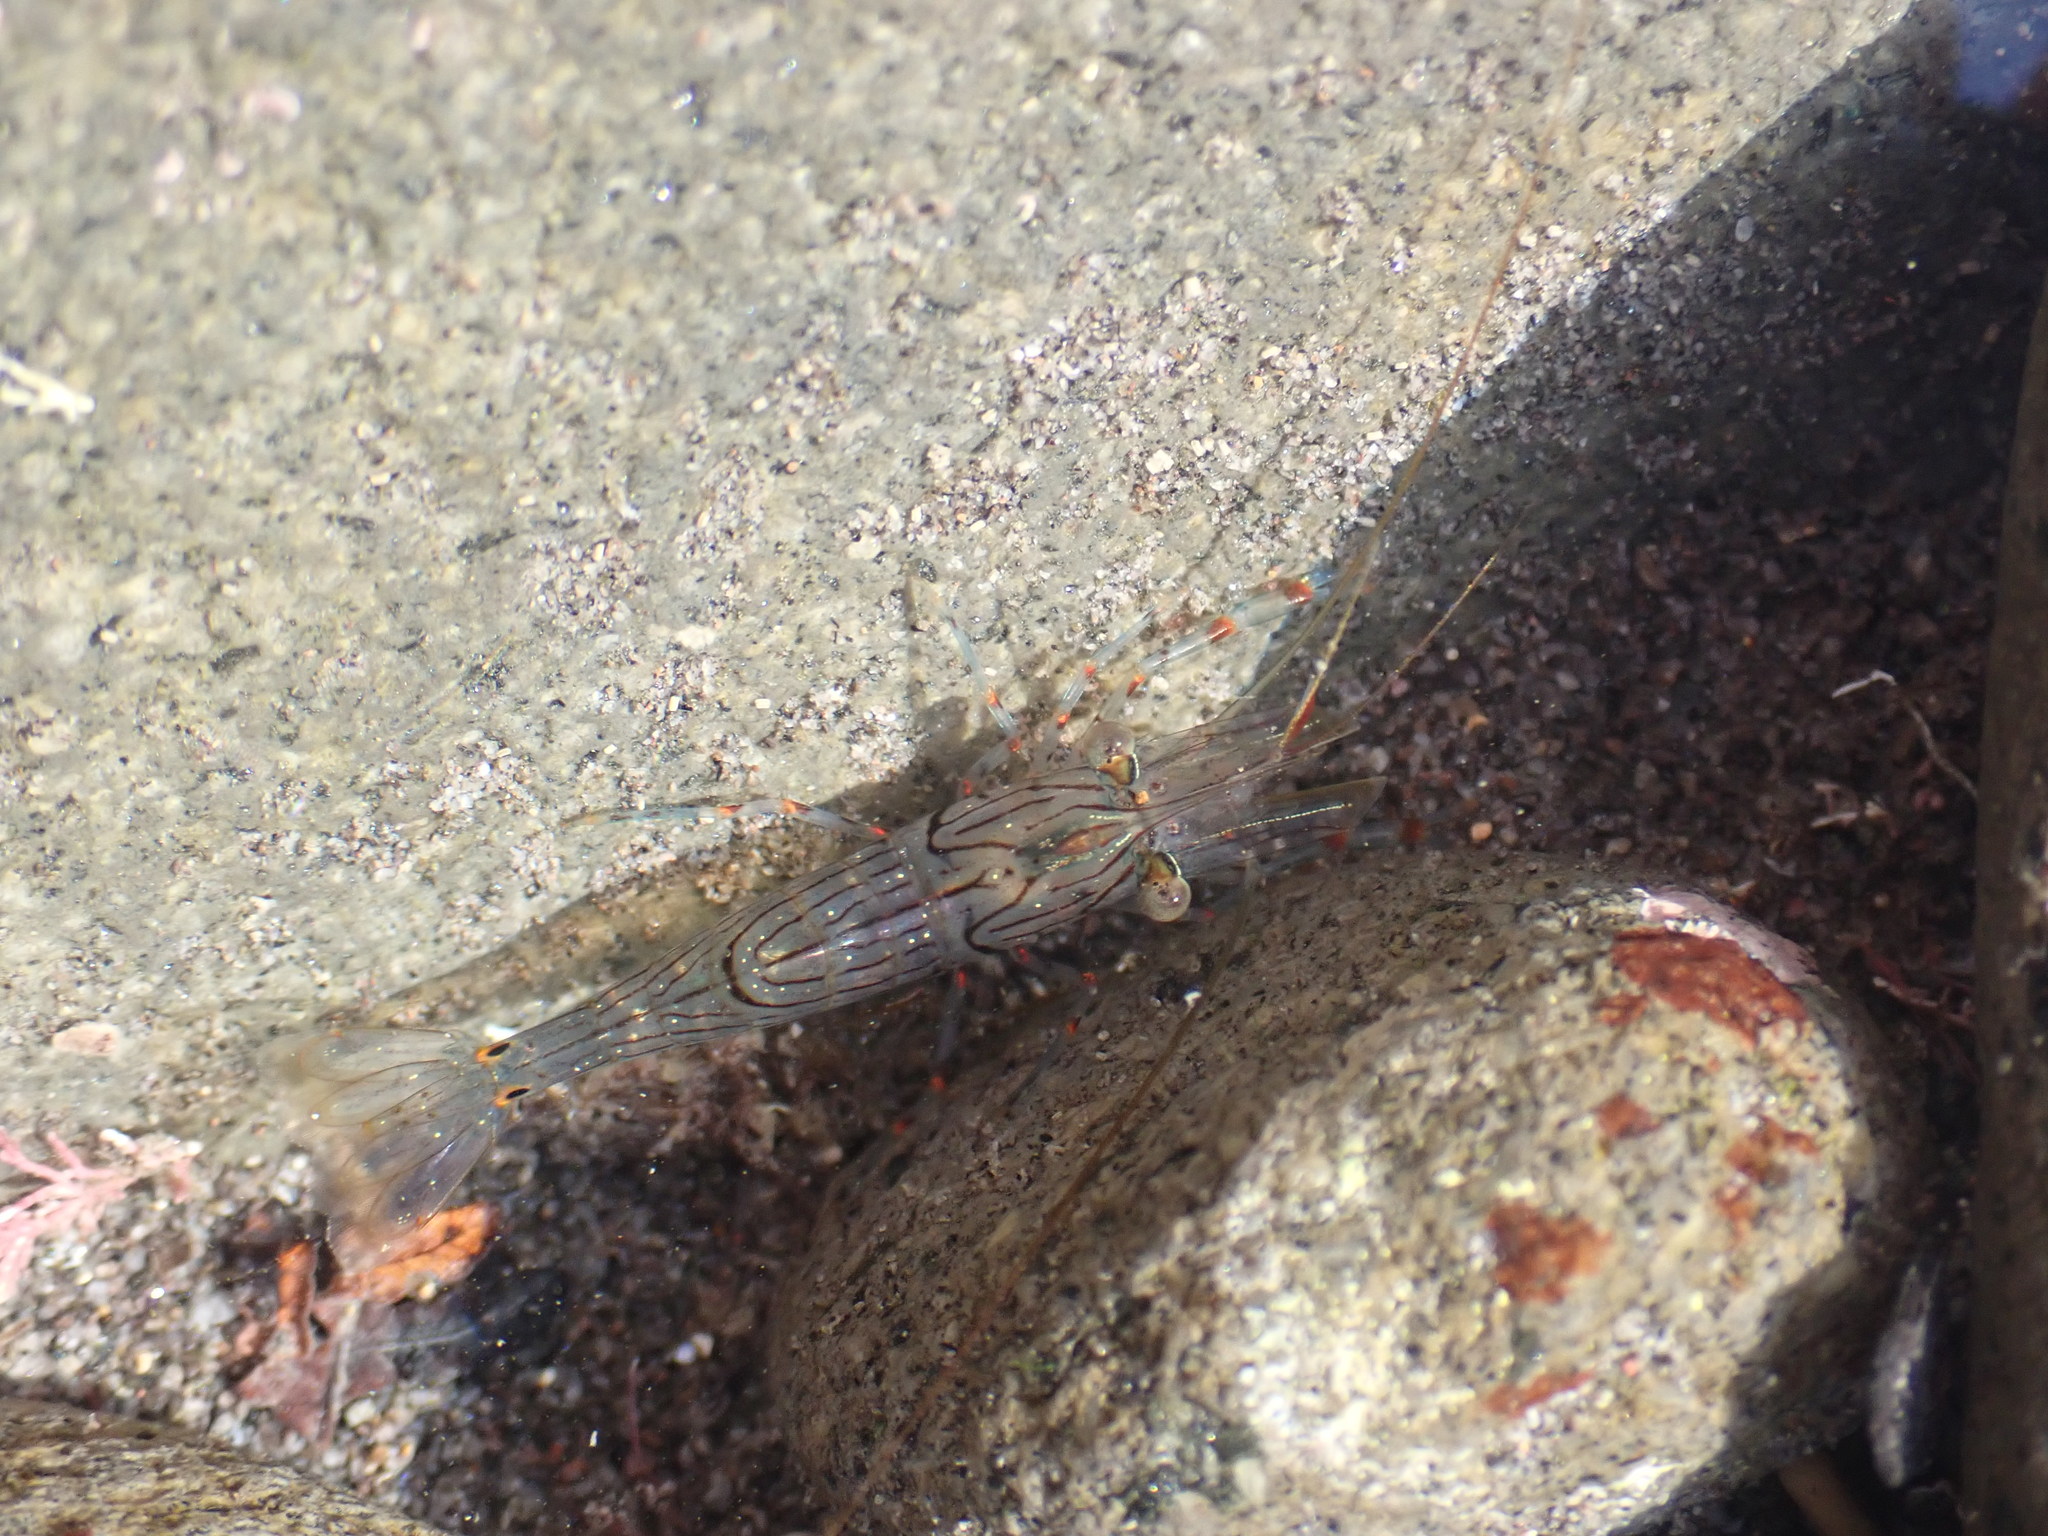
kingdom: Animalia
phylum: Arthropoda
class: Malacostraca
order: Decapoda
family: Palaemonidae
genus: Palaemon
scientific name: Palaemon affinis
